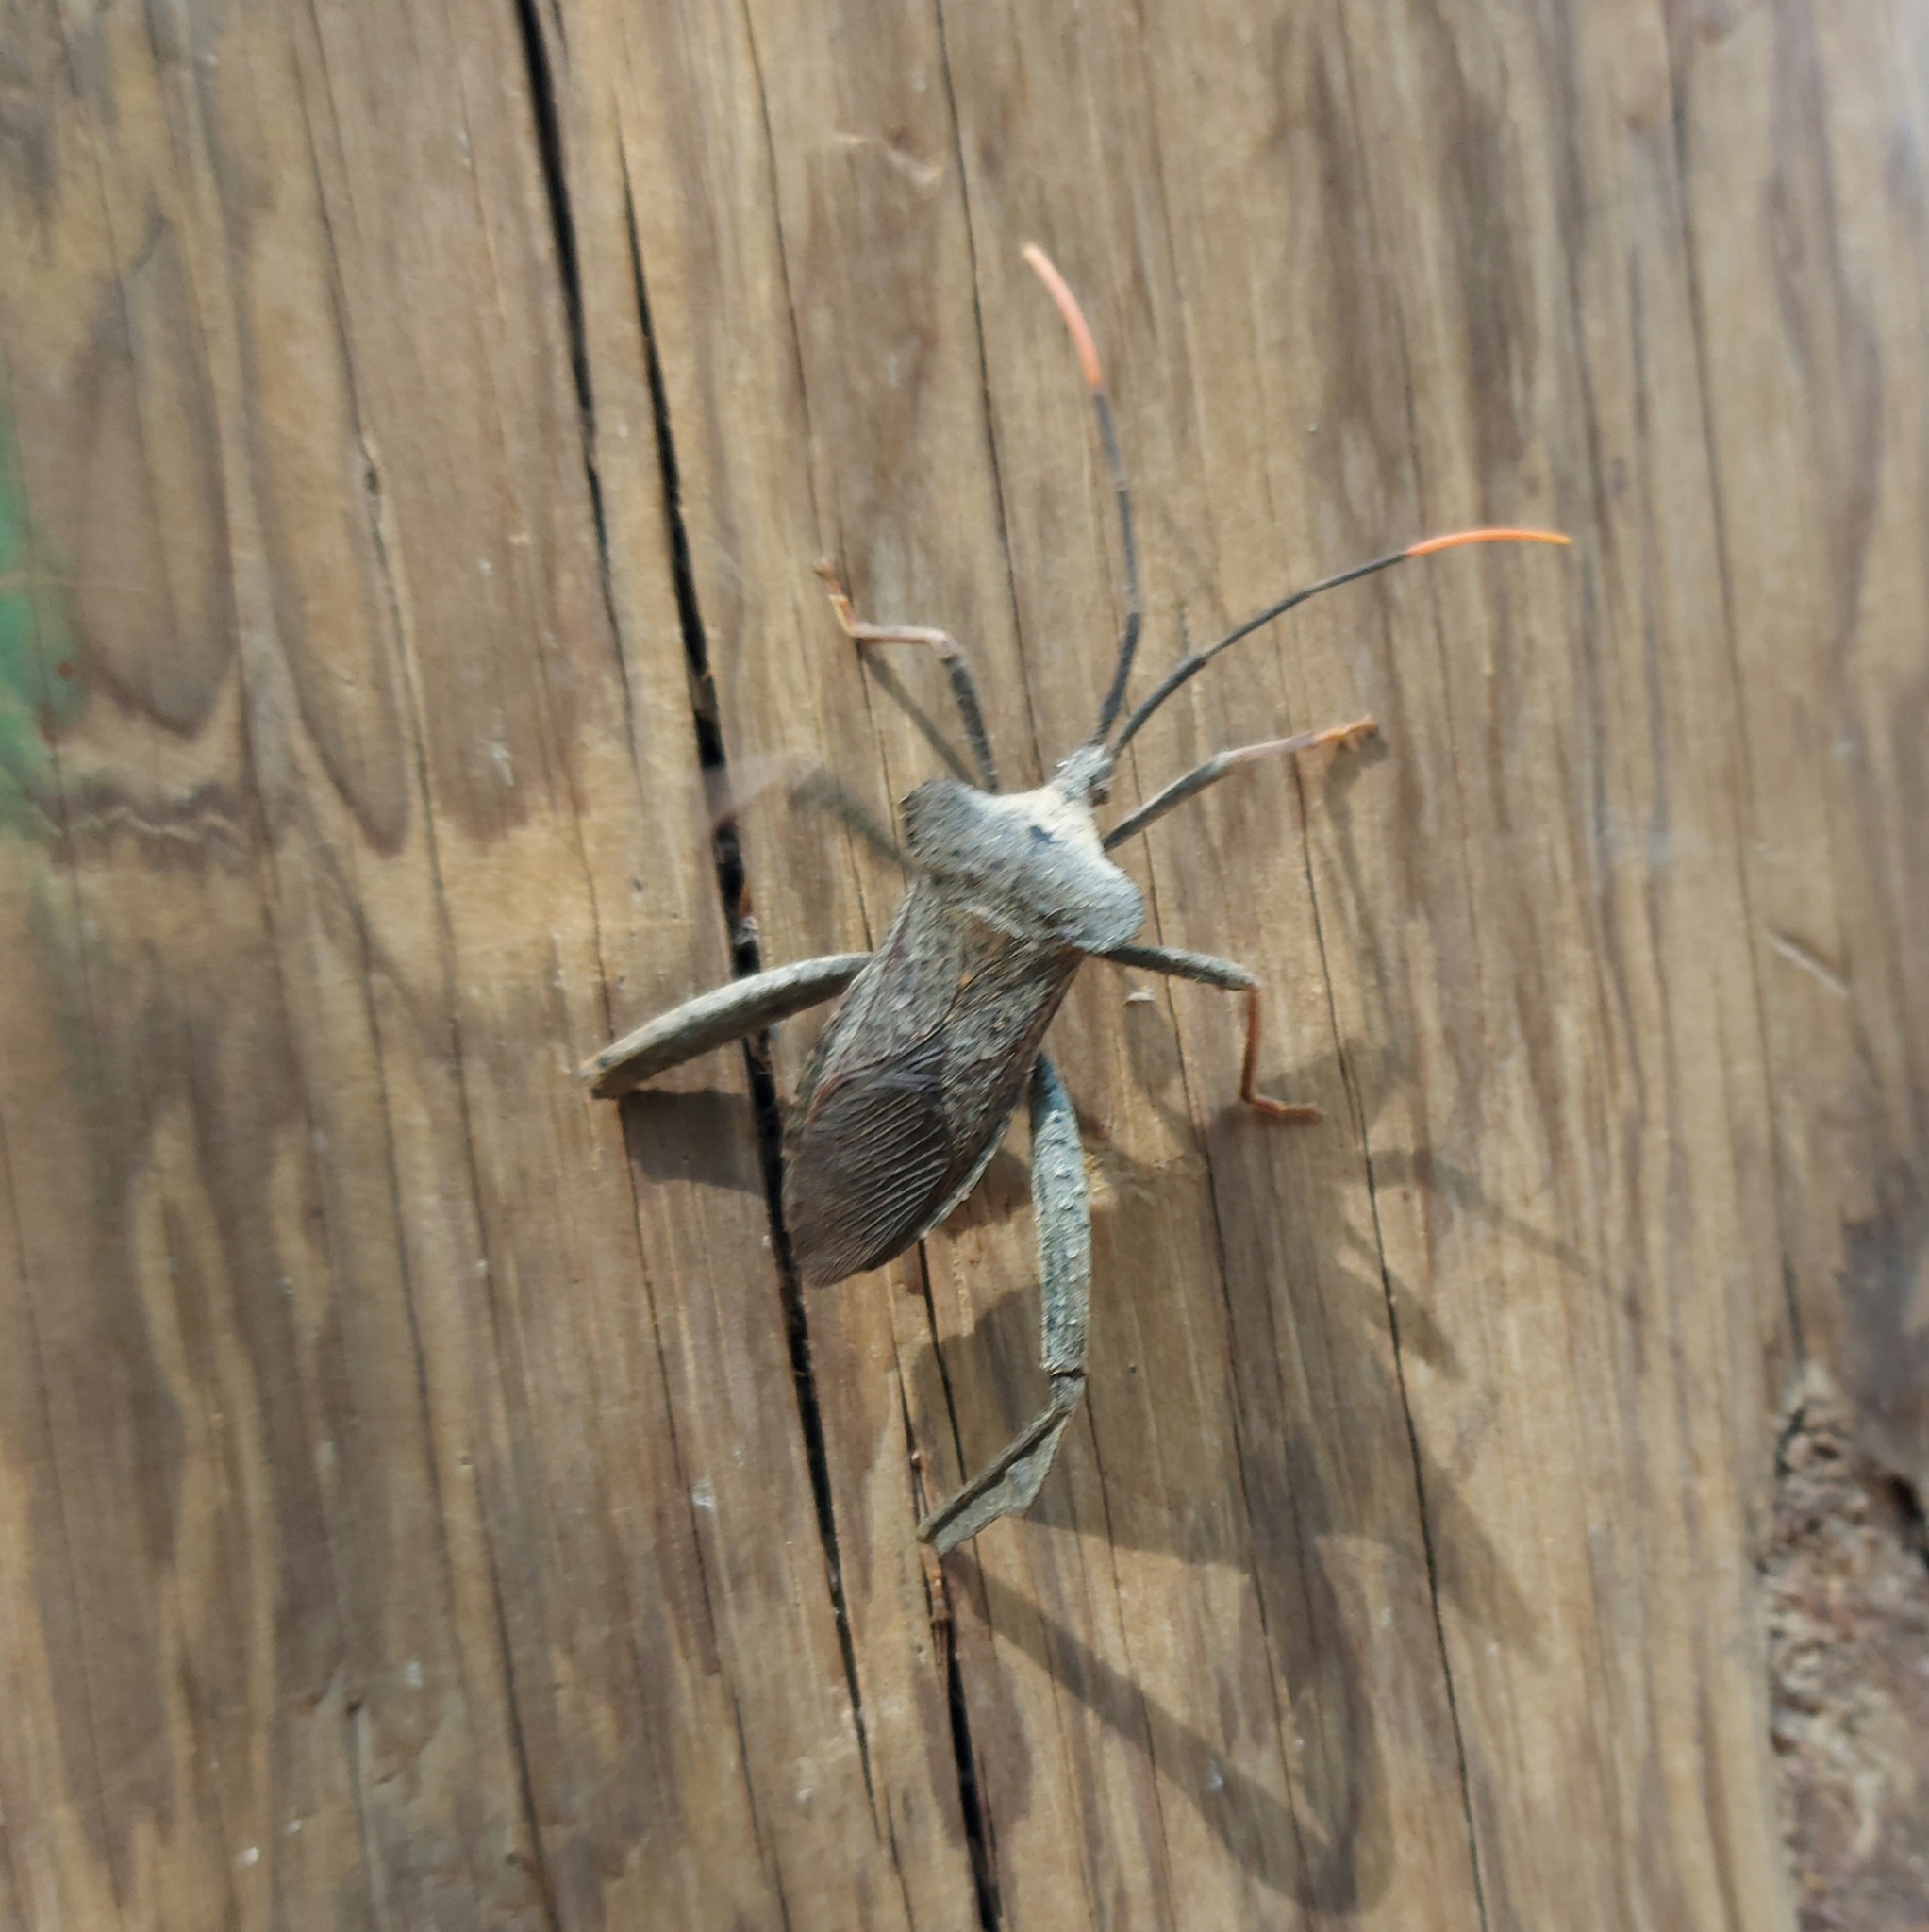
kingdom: Animalia
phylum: Arthropoda
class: Insecta
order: Hemiptera
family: Coreidae
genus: Acanthocephala
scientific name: Acanthocephala alata
